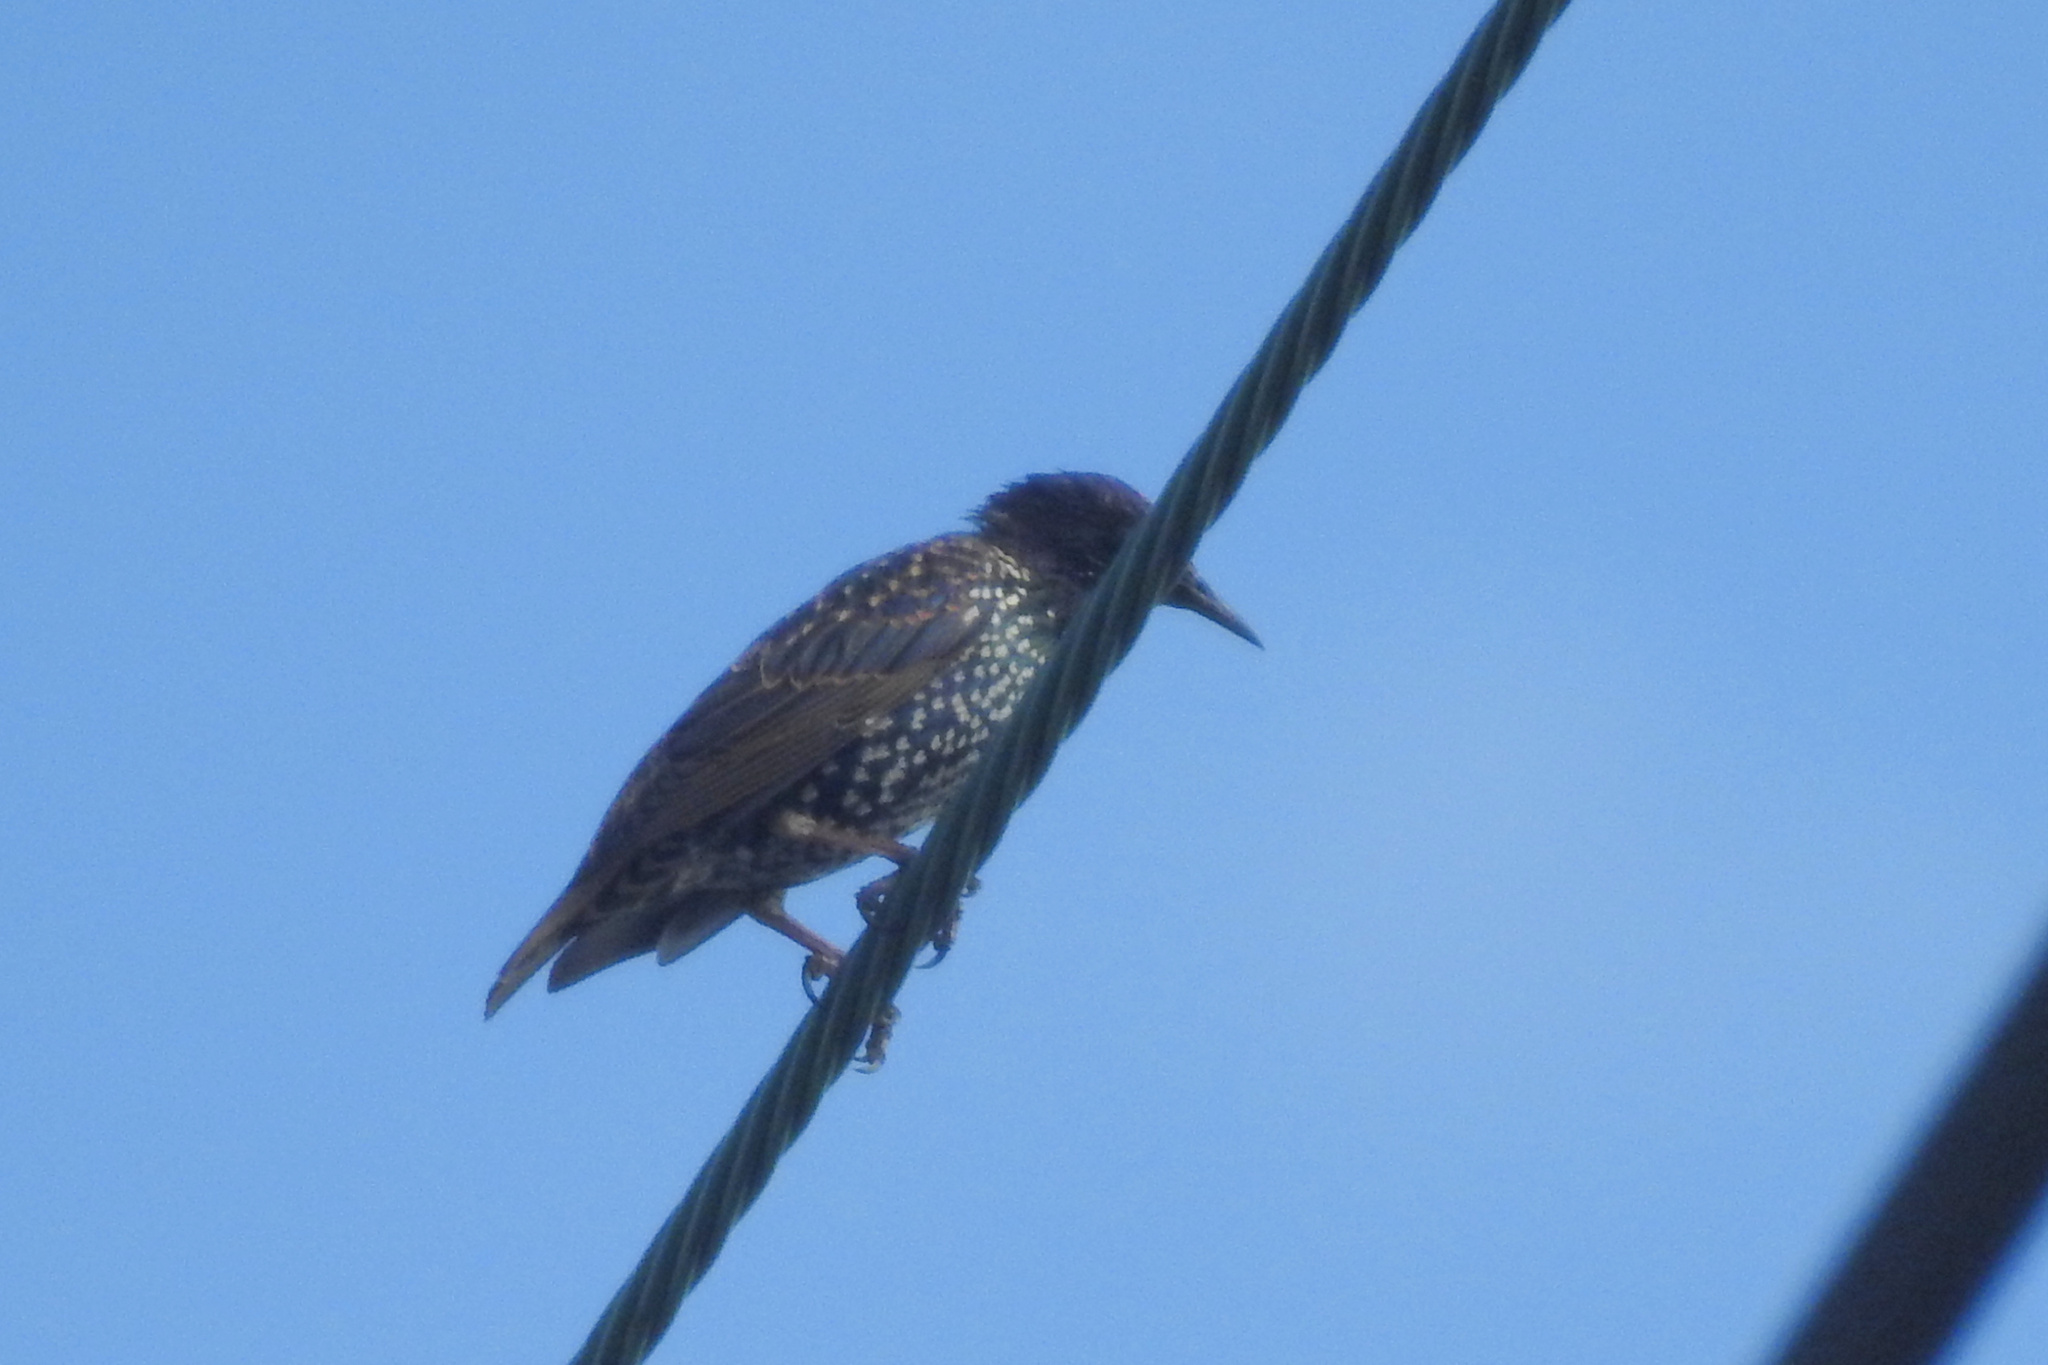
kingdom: Animalia
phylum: Chordata
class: Aves
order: Passeriformes
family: Sturnidae
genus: Sturnus
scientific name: Sturnus vulgaris
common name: Common starling
